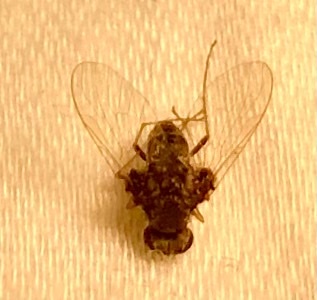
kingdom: Animalia
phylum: Arthropoda
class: Insecta
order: Diptera
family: Rhagionidae
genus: Chrysopilus
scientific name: Chrysopilus basilaris
